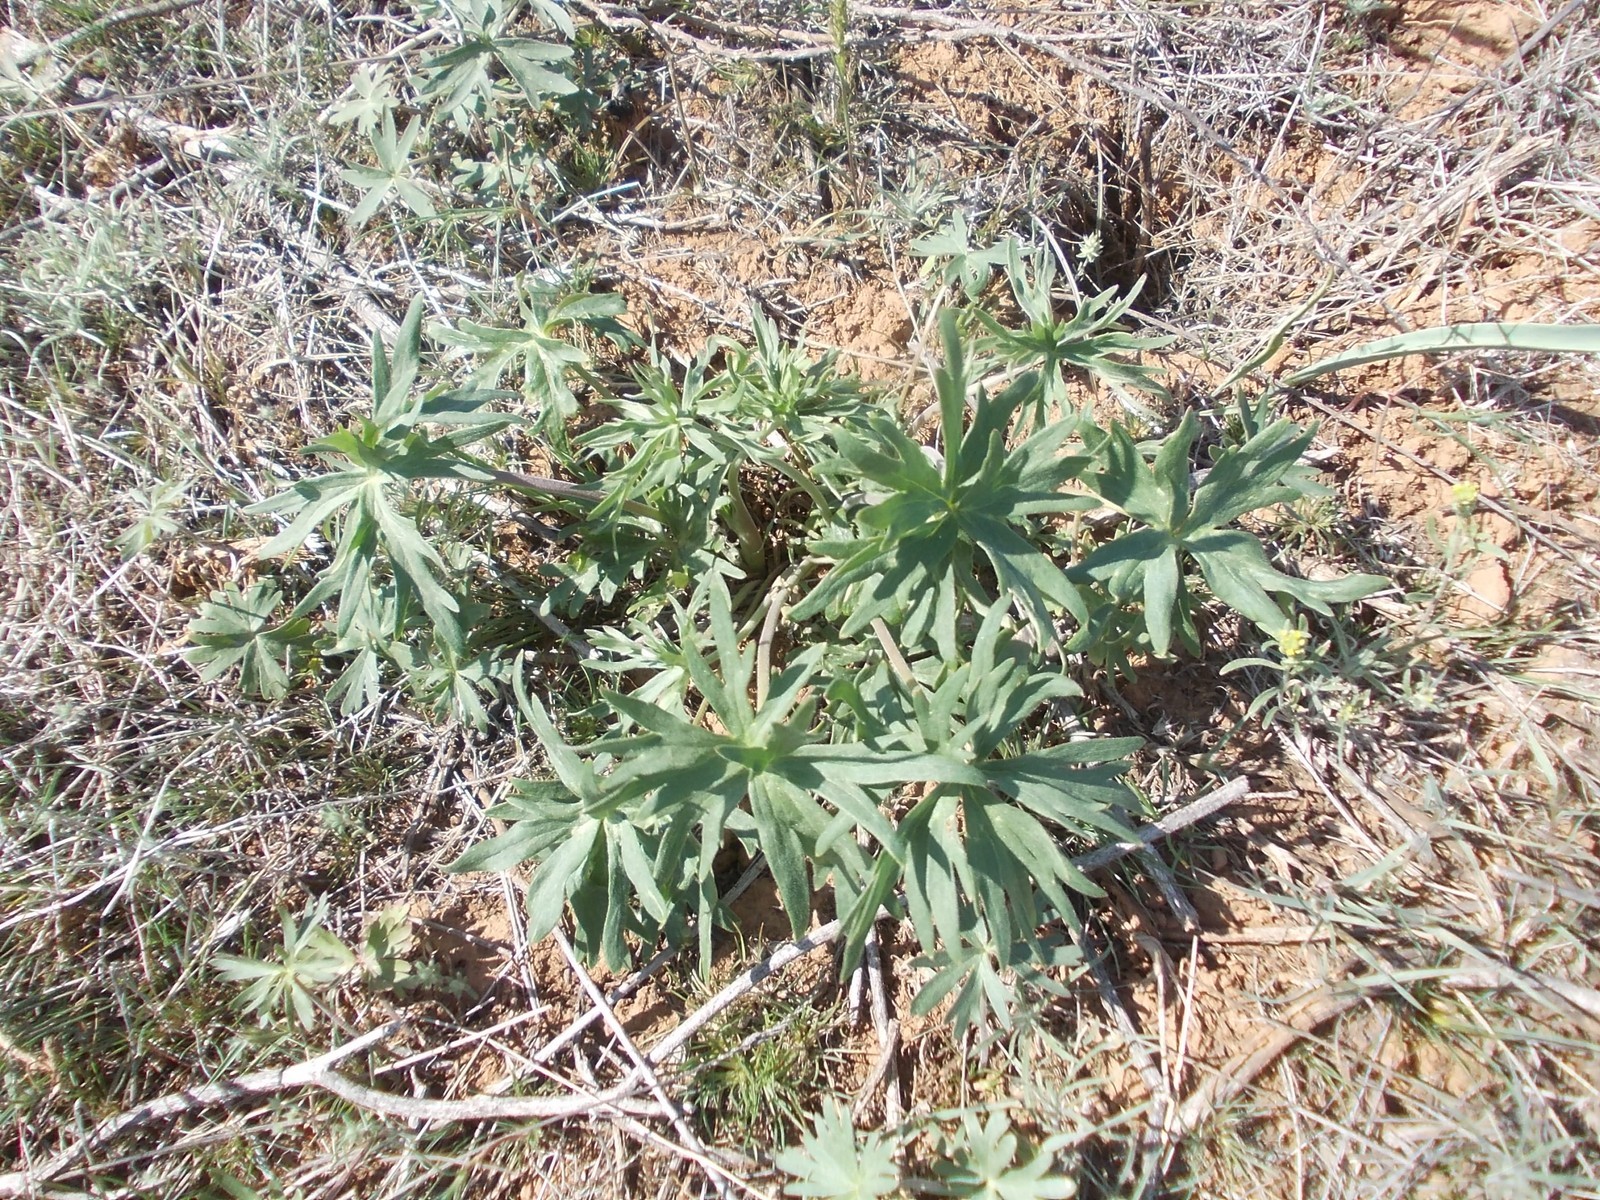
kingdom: Plantae
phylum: Tracheophyta
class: Magnoliopsida
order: Ranunculales
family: Ranunculaceae
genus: Delphinium
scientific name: Delphinium puniceum
